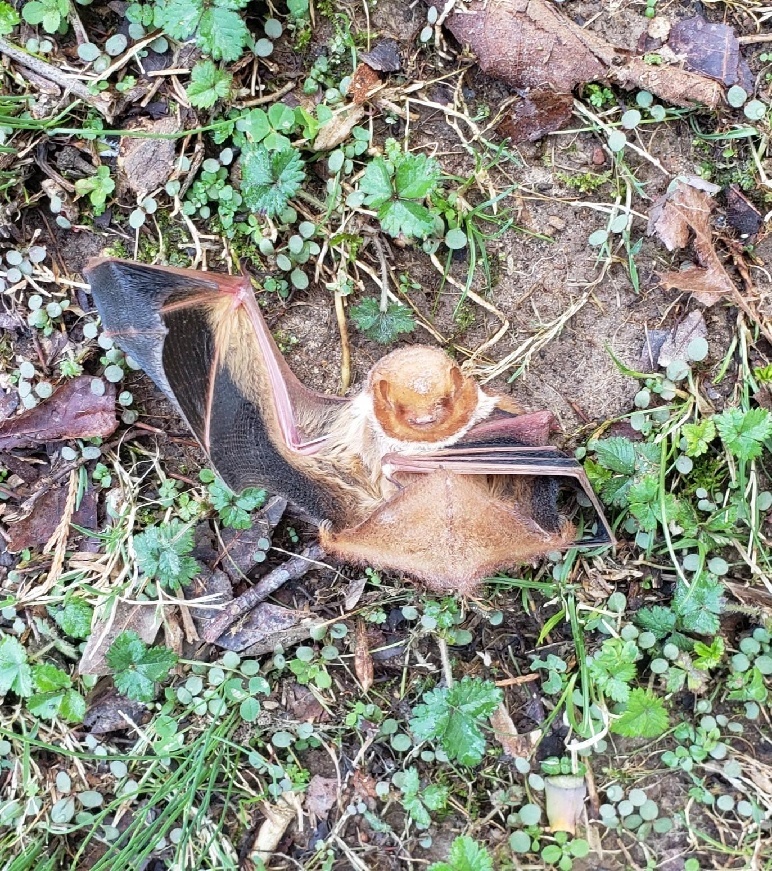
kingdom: Animalia
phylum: Chordata
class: Mammalia
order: Chiroptera
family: Vespertilionidae
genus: Lasiurus
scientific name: Lasiurus borealis
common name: Eastern red bat
